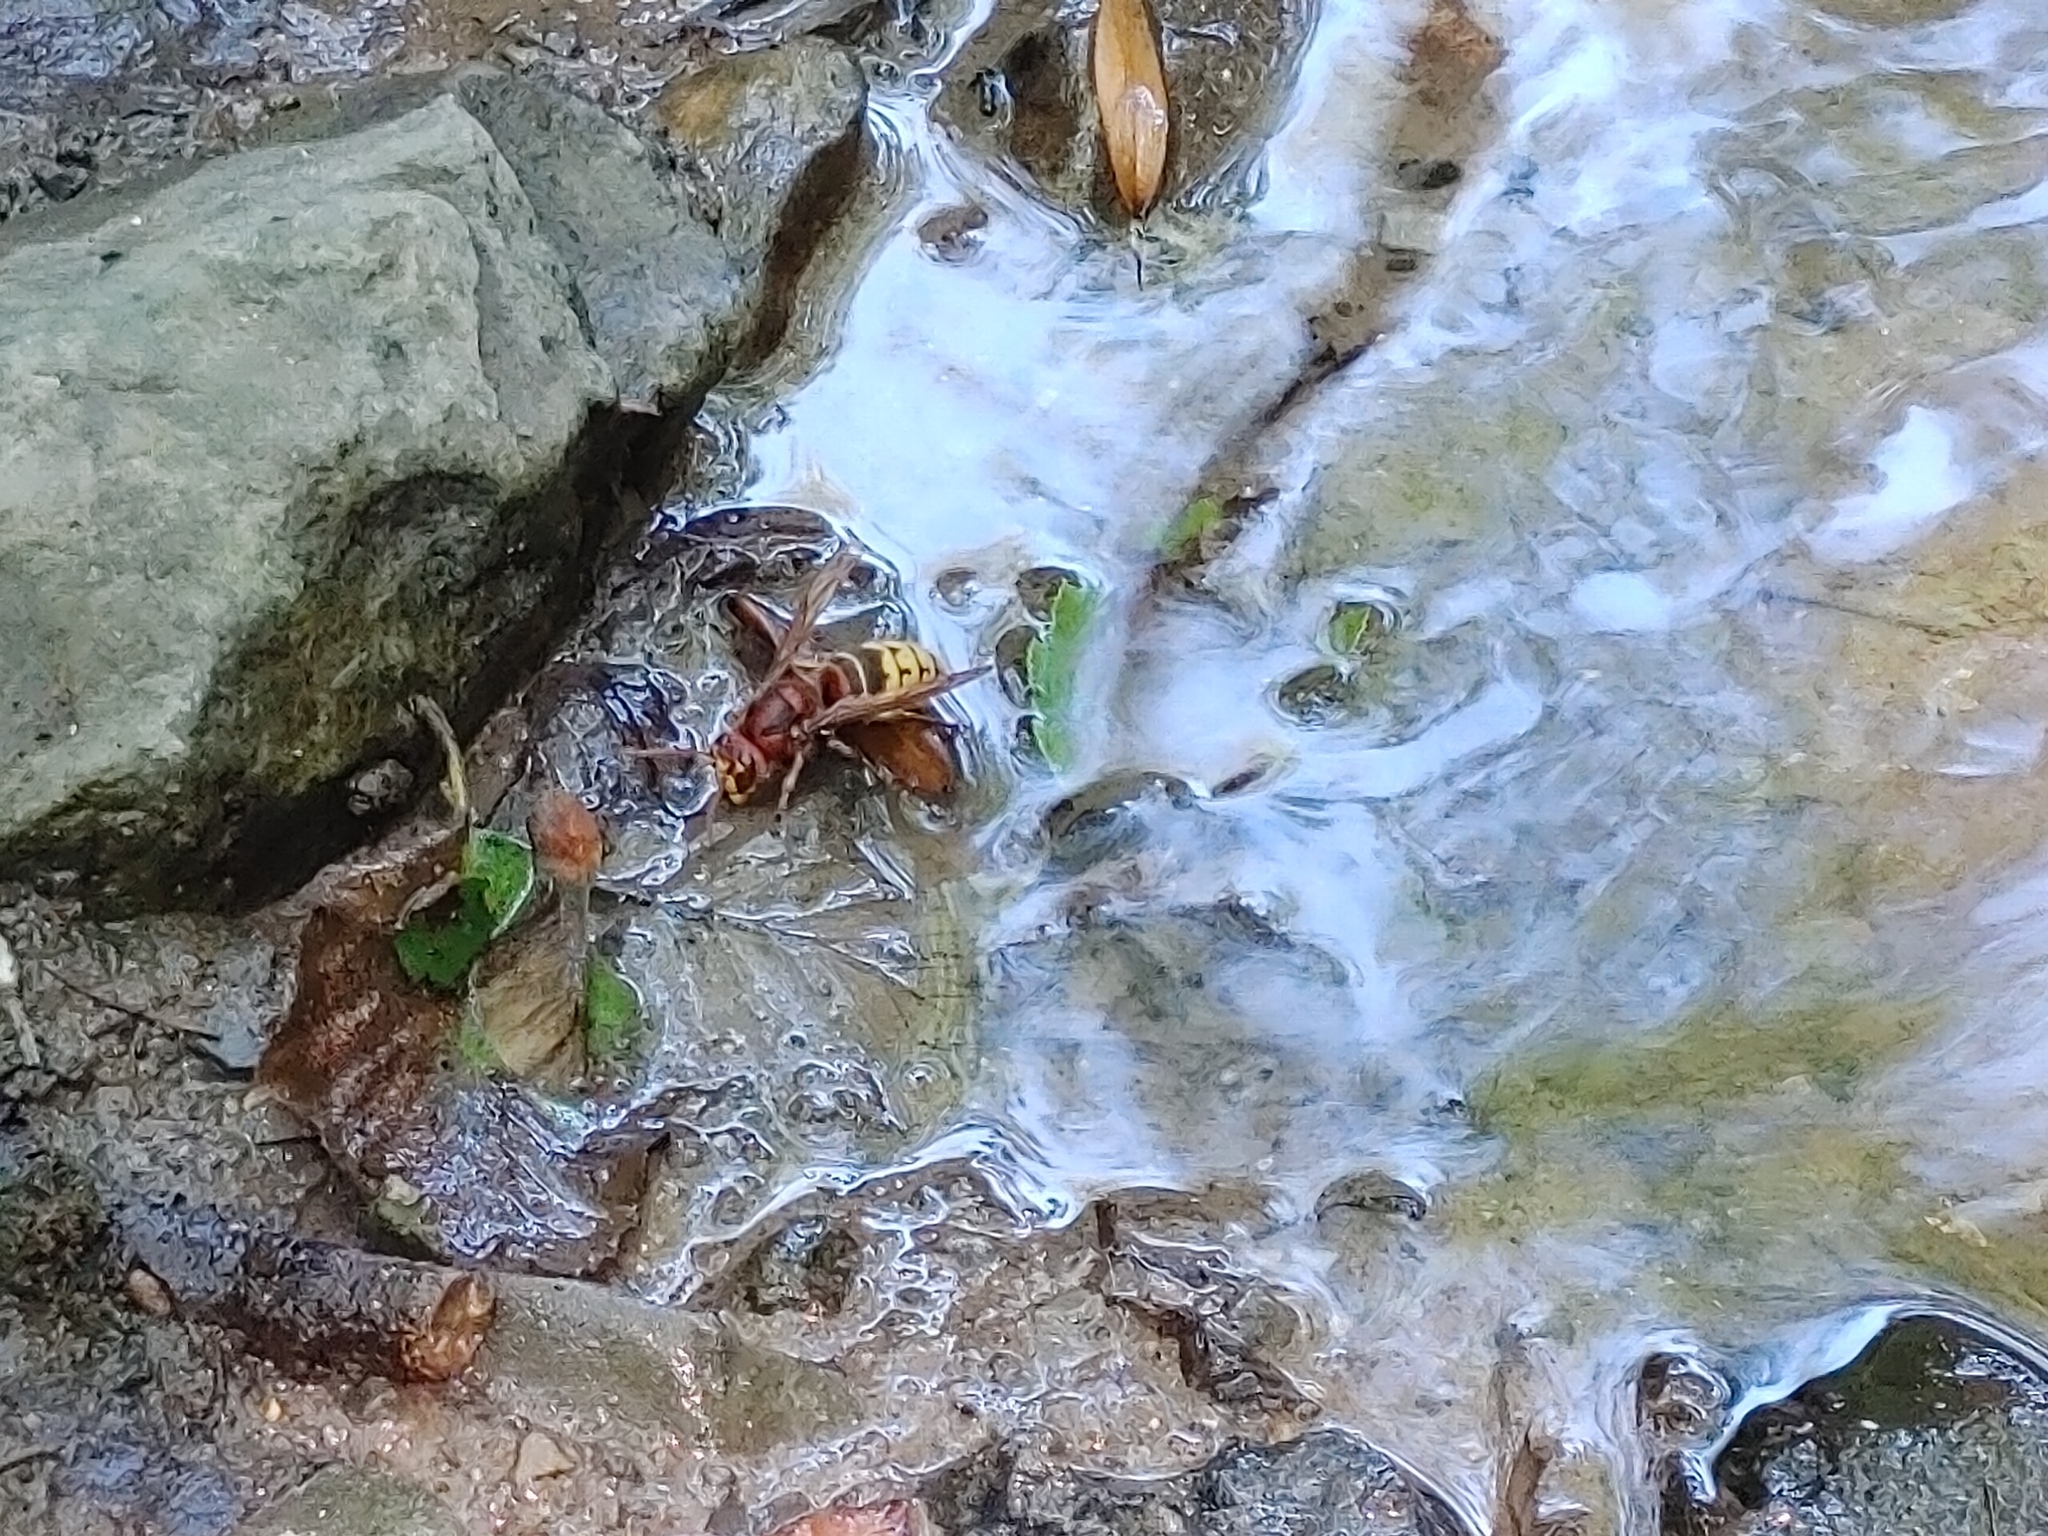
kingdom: Animalia
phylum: Arthropoda
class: Insecta
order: Hymenoptera
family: Vespidae
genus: Vespa
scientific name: Vespa crabro
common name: Hornet
